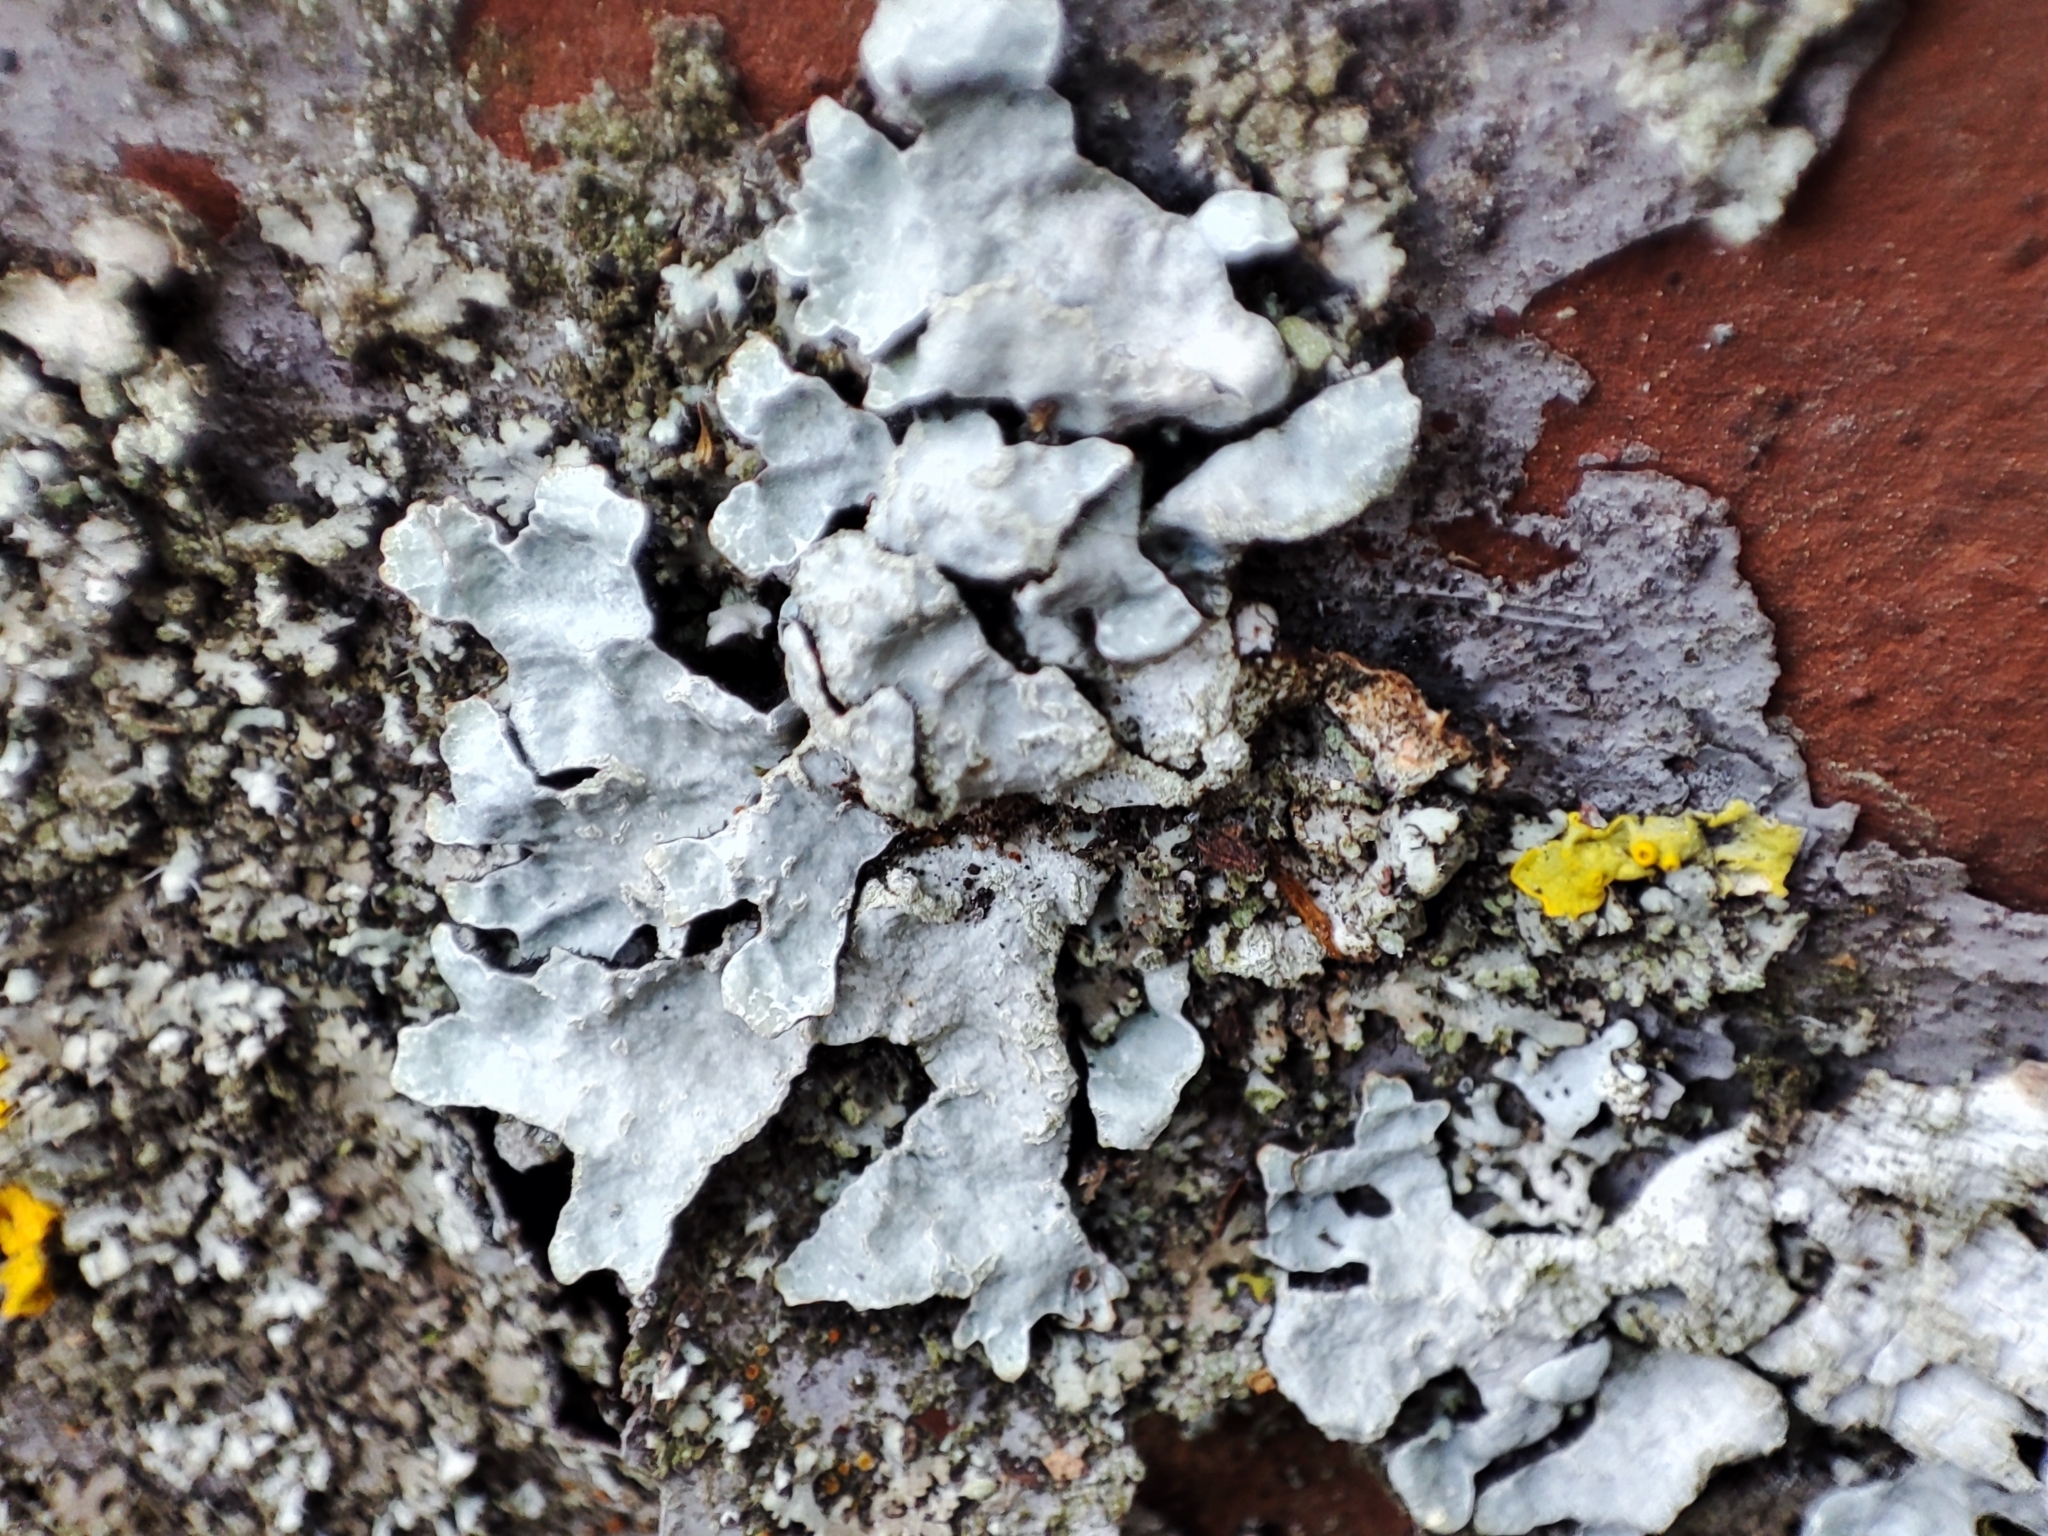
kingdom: Fungi
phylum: Ascomycota
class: Lecanoromycetes
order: Lecanorales
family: Parmeliaceae
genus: Parmelia
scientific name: Parmelia sulcata
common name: Netted shield lichen
